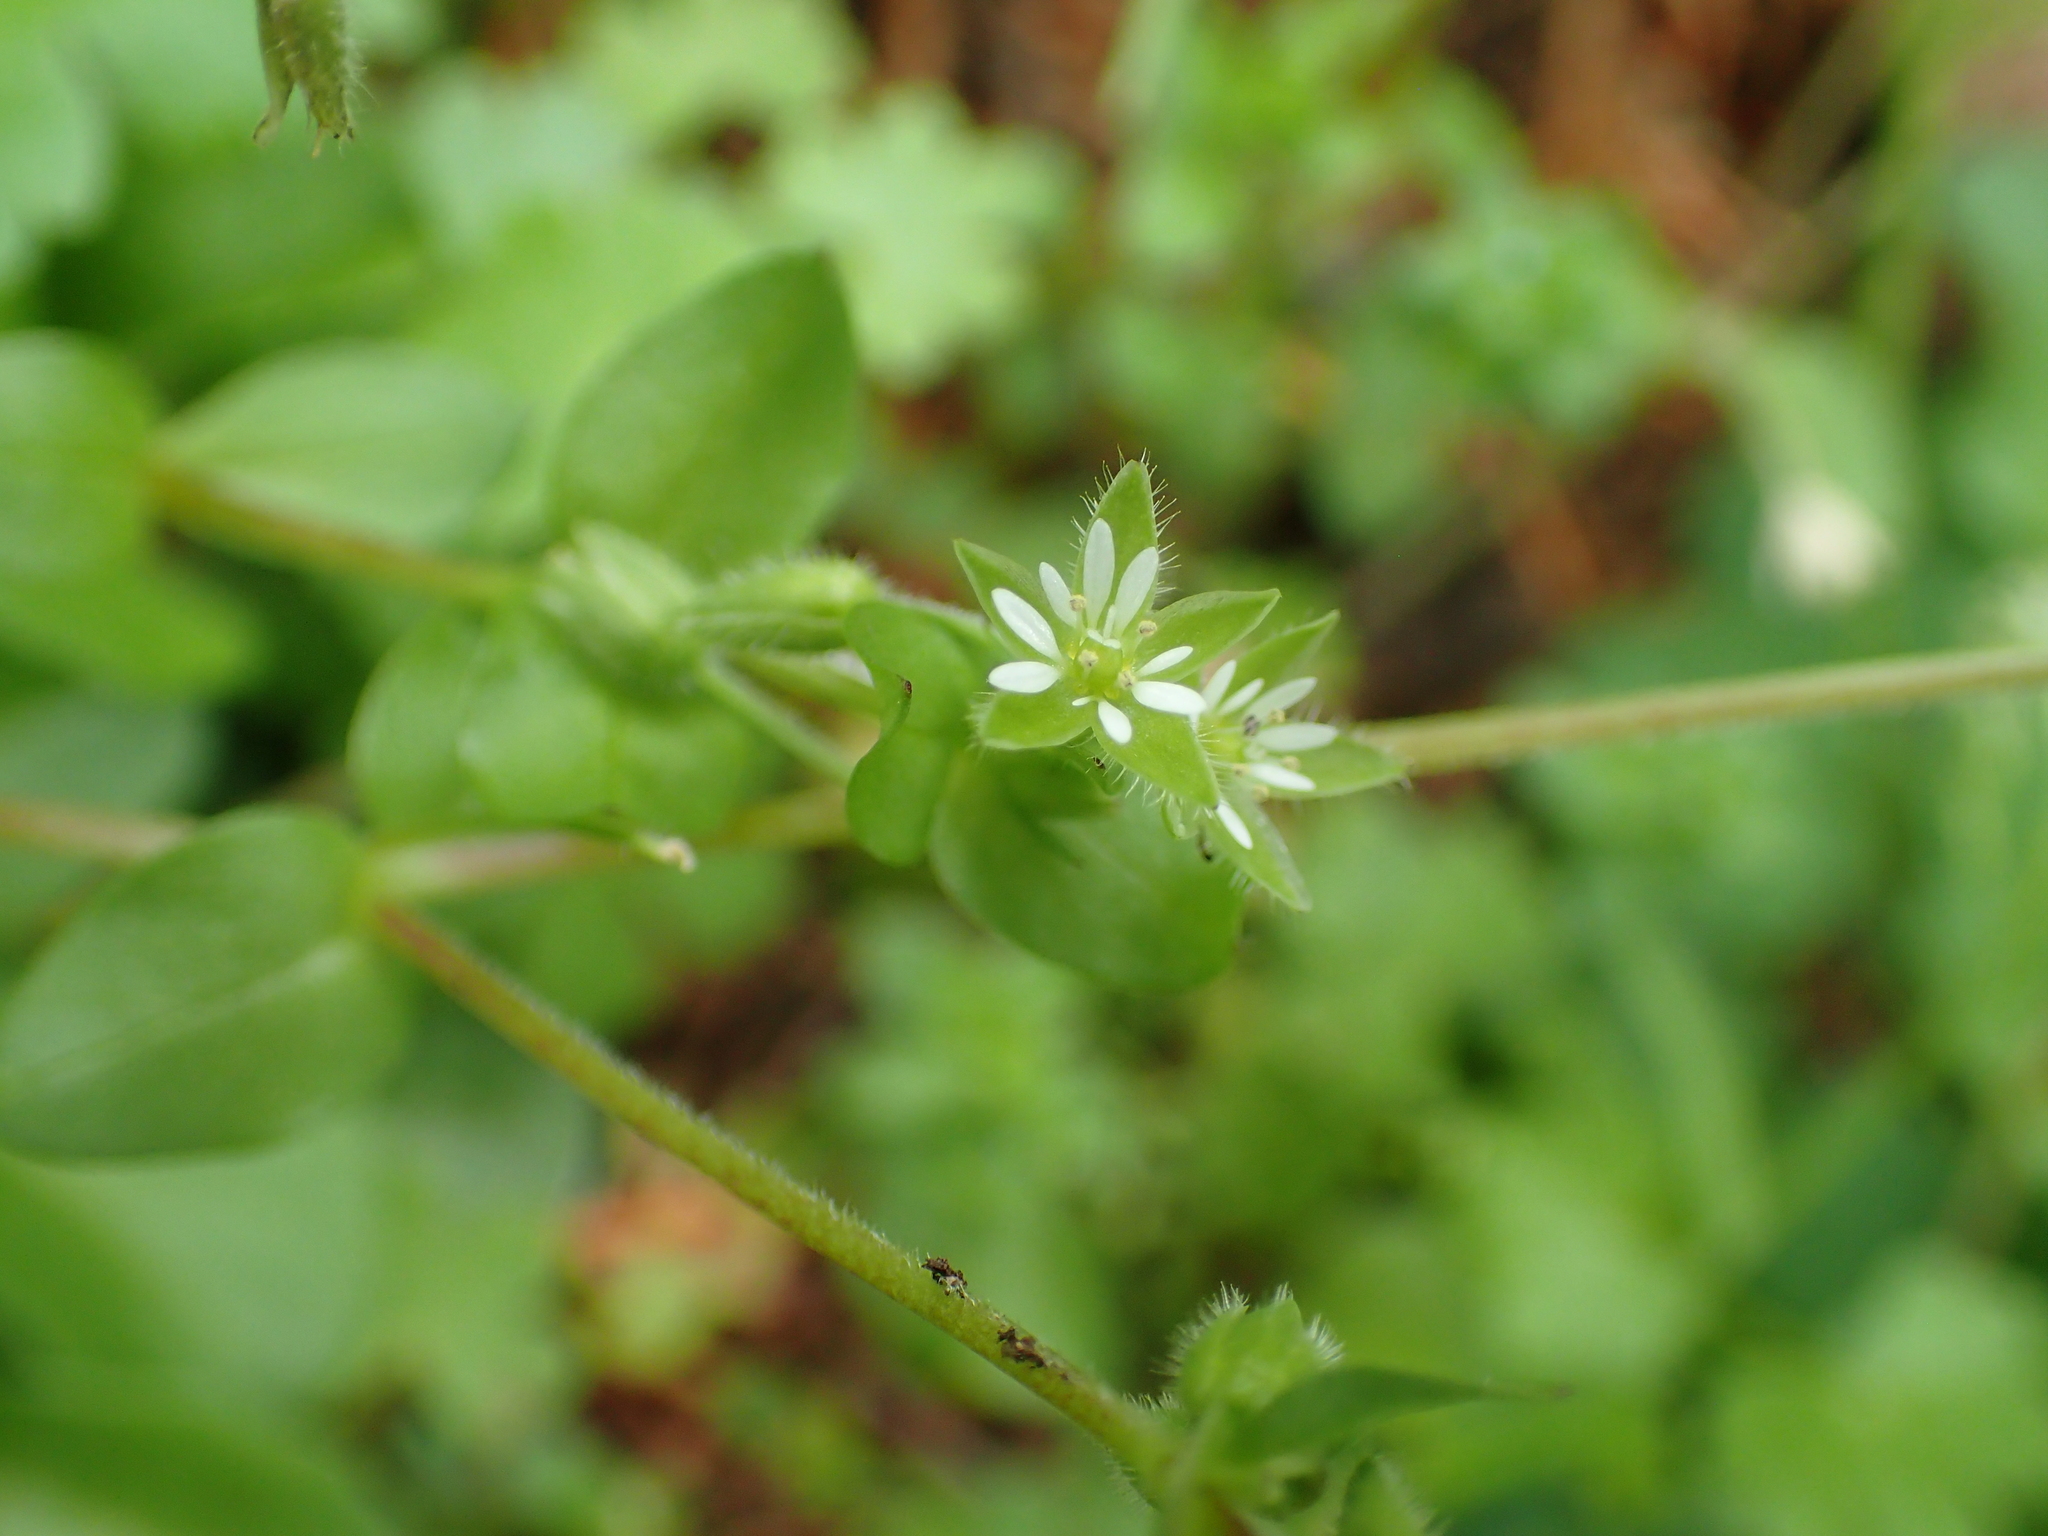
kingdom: Plantae
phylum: Tracheophyta
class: Magnoliopsida
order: Caryophyllales
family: Caryophyllaceae
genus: Stellaria
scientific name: Stellaria media
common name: Common chickweed
